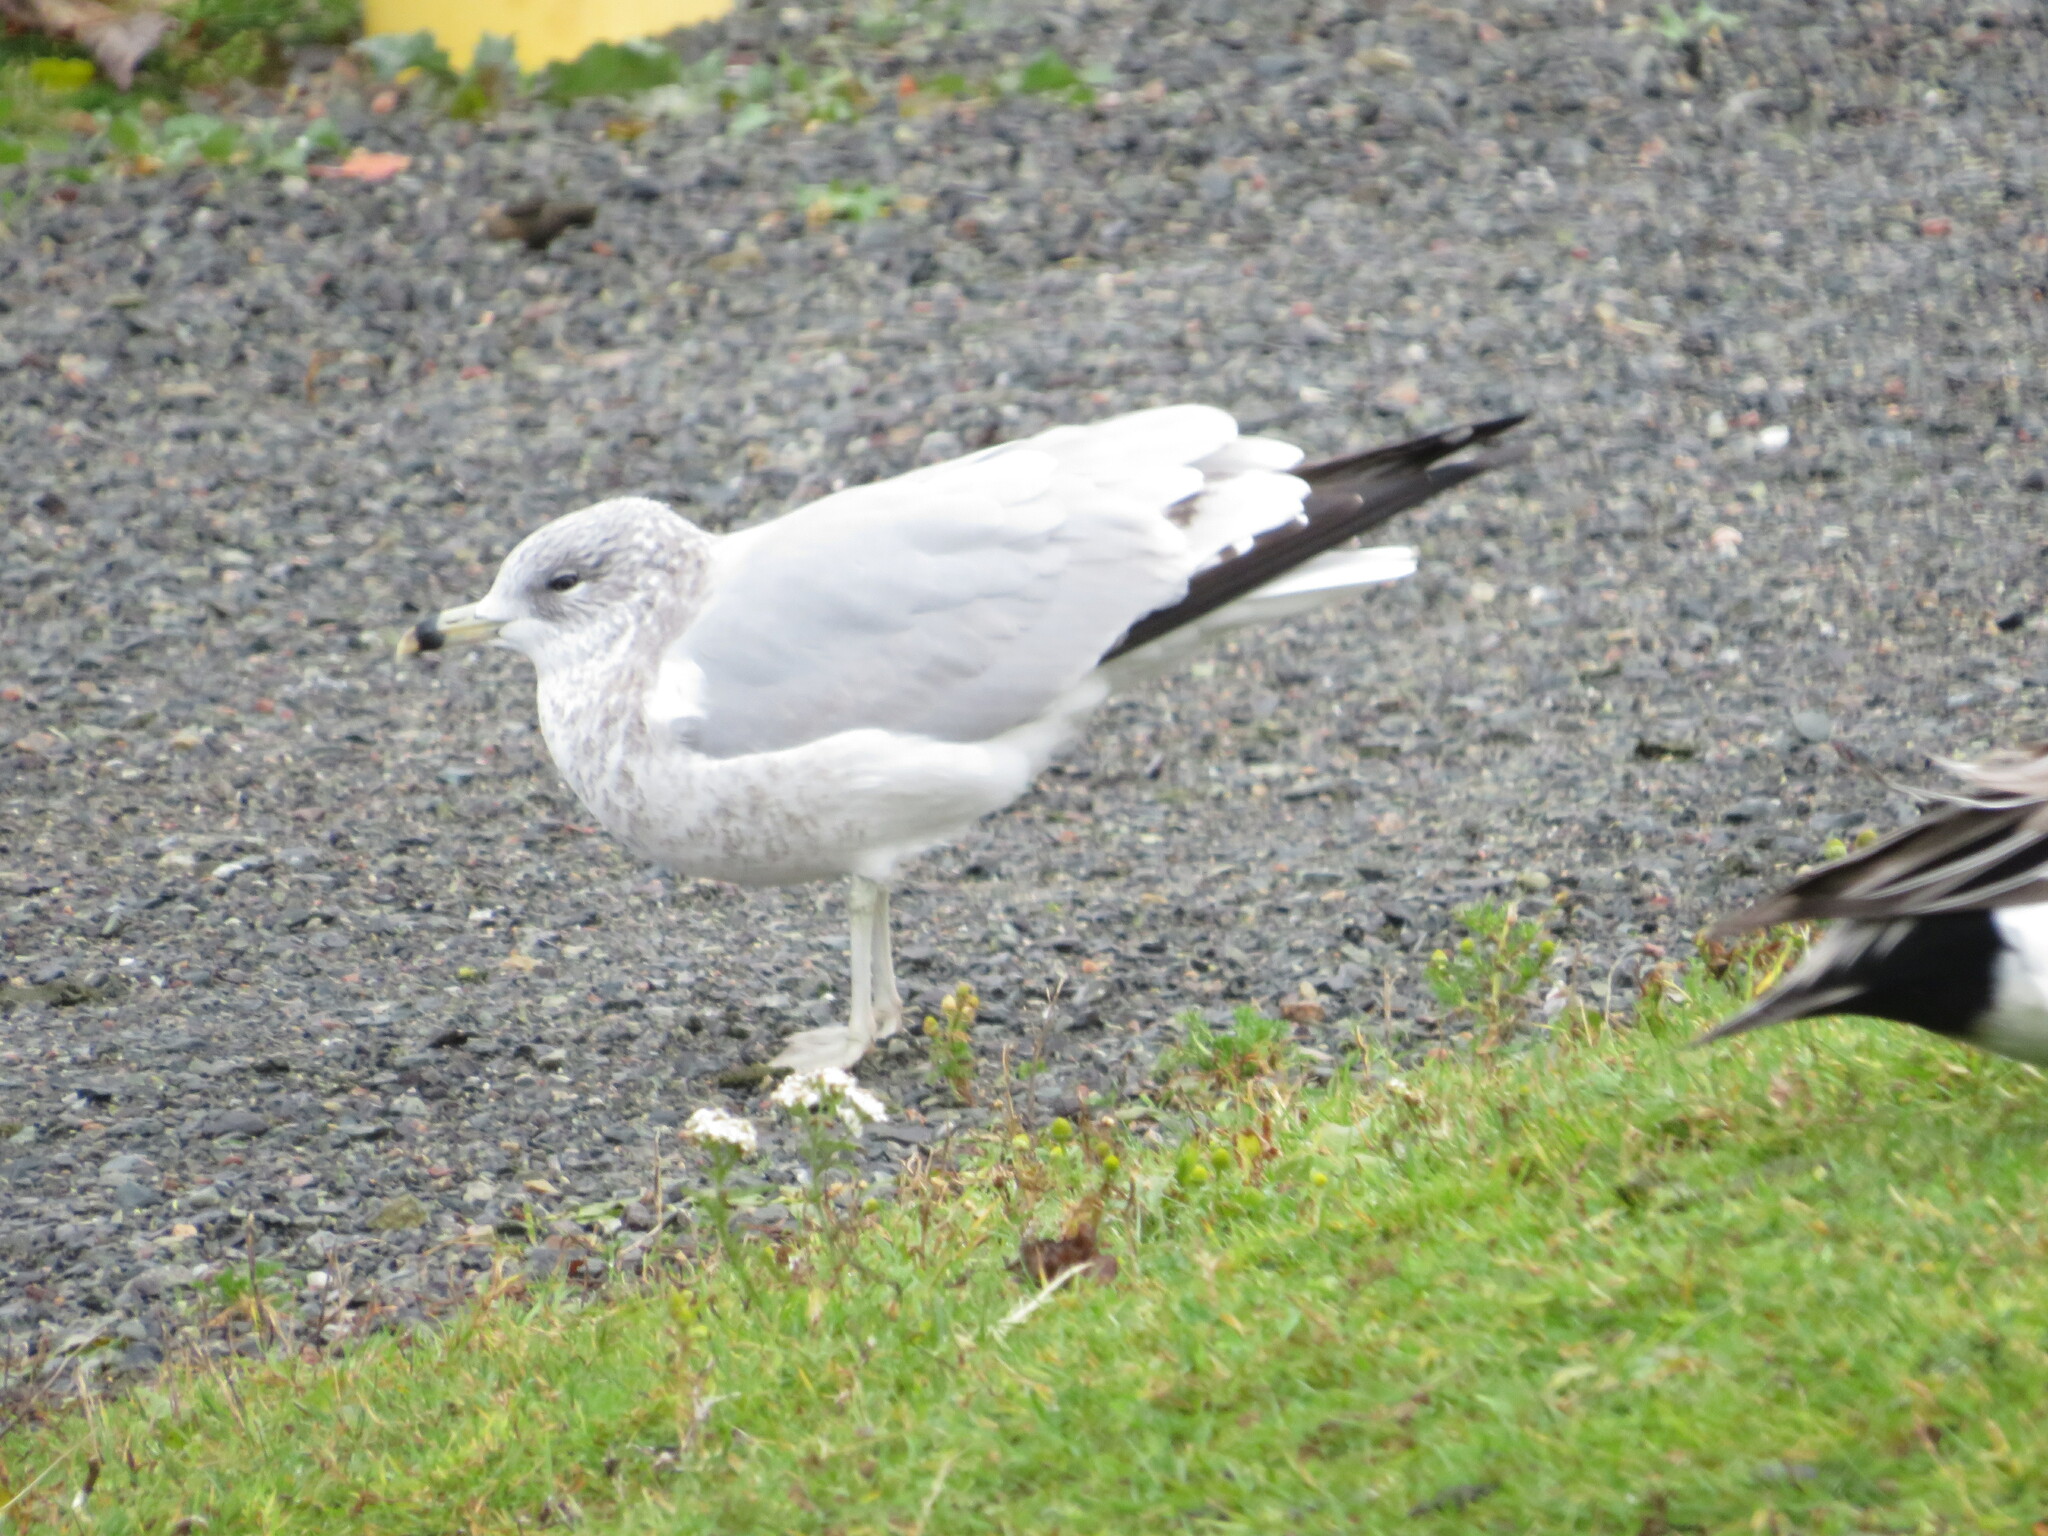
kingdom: Animalia
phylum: Chordata
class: Aves
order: Charadriiformes
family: Laridae
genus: Larus
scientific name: Larus delawarensis
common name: Ring-billed gull
